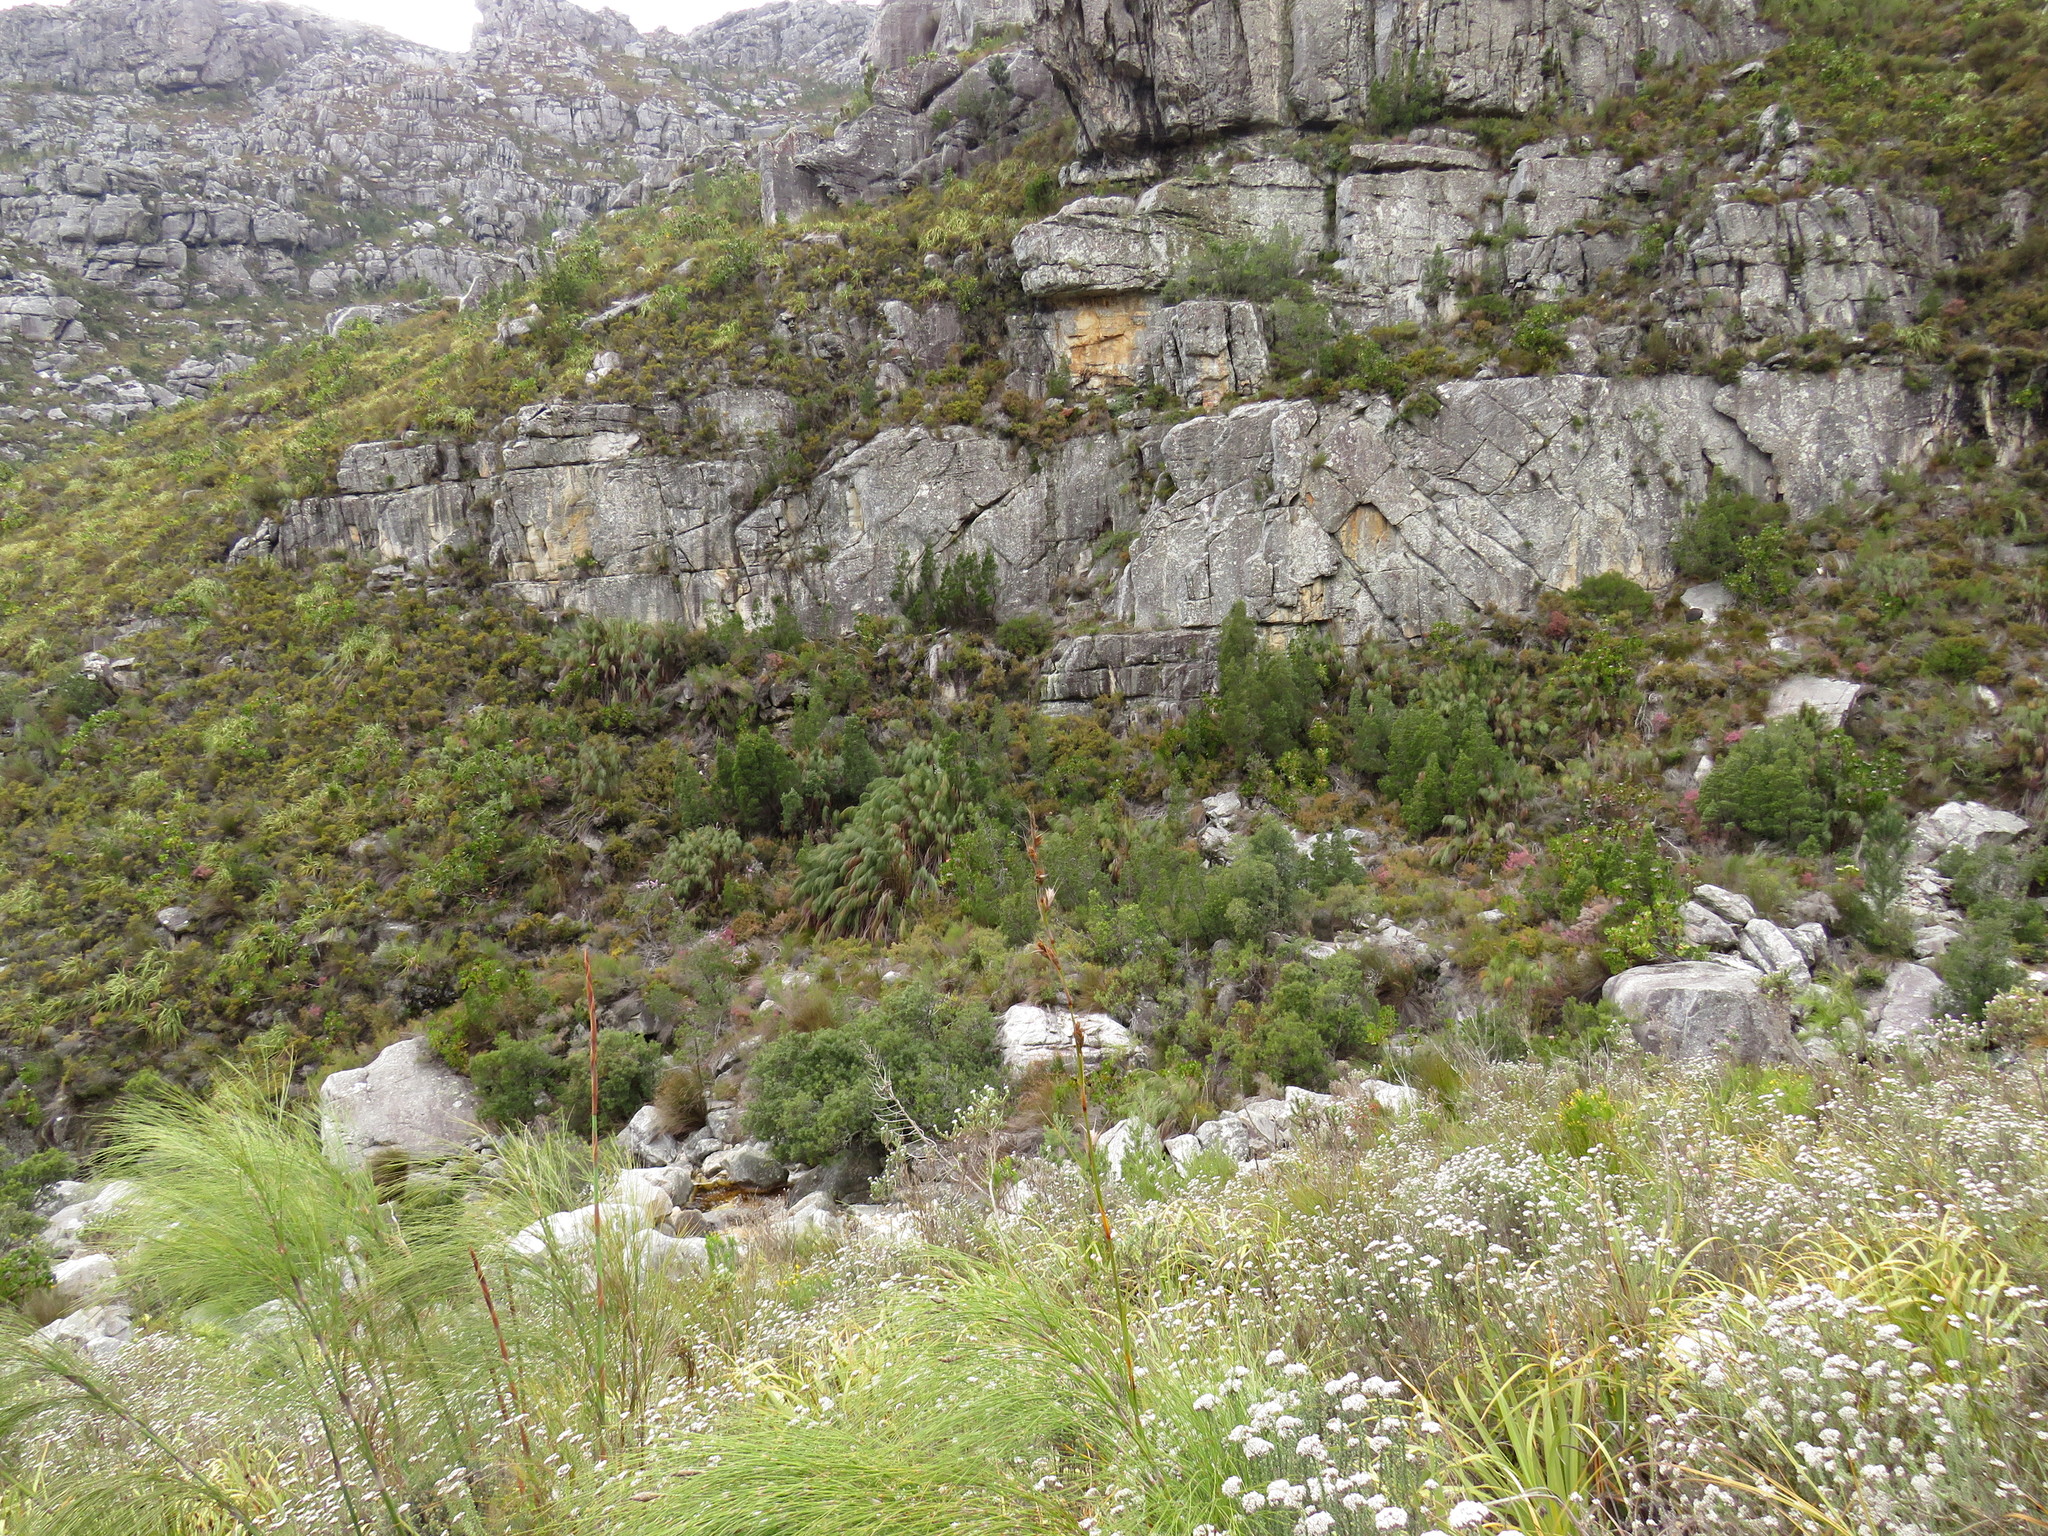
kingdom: Plantae
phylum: Tracheophyta
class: Liliopsida
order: Poales
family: Restionaceae
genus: Cannomois
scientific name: Cannomois grandis
